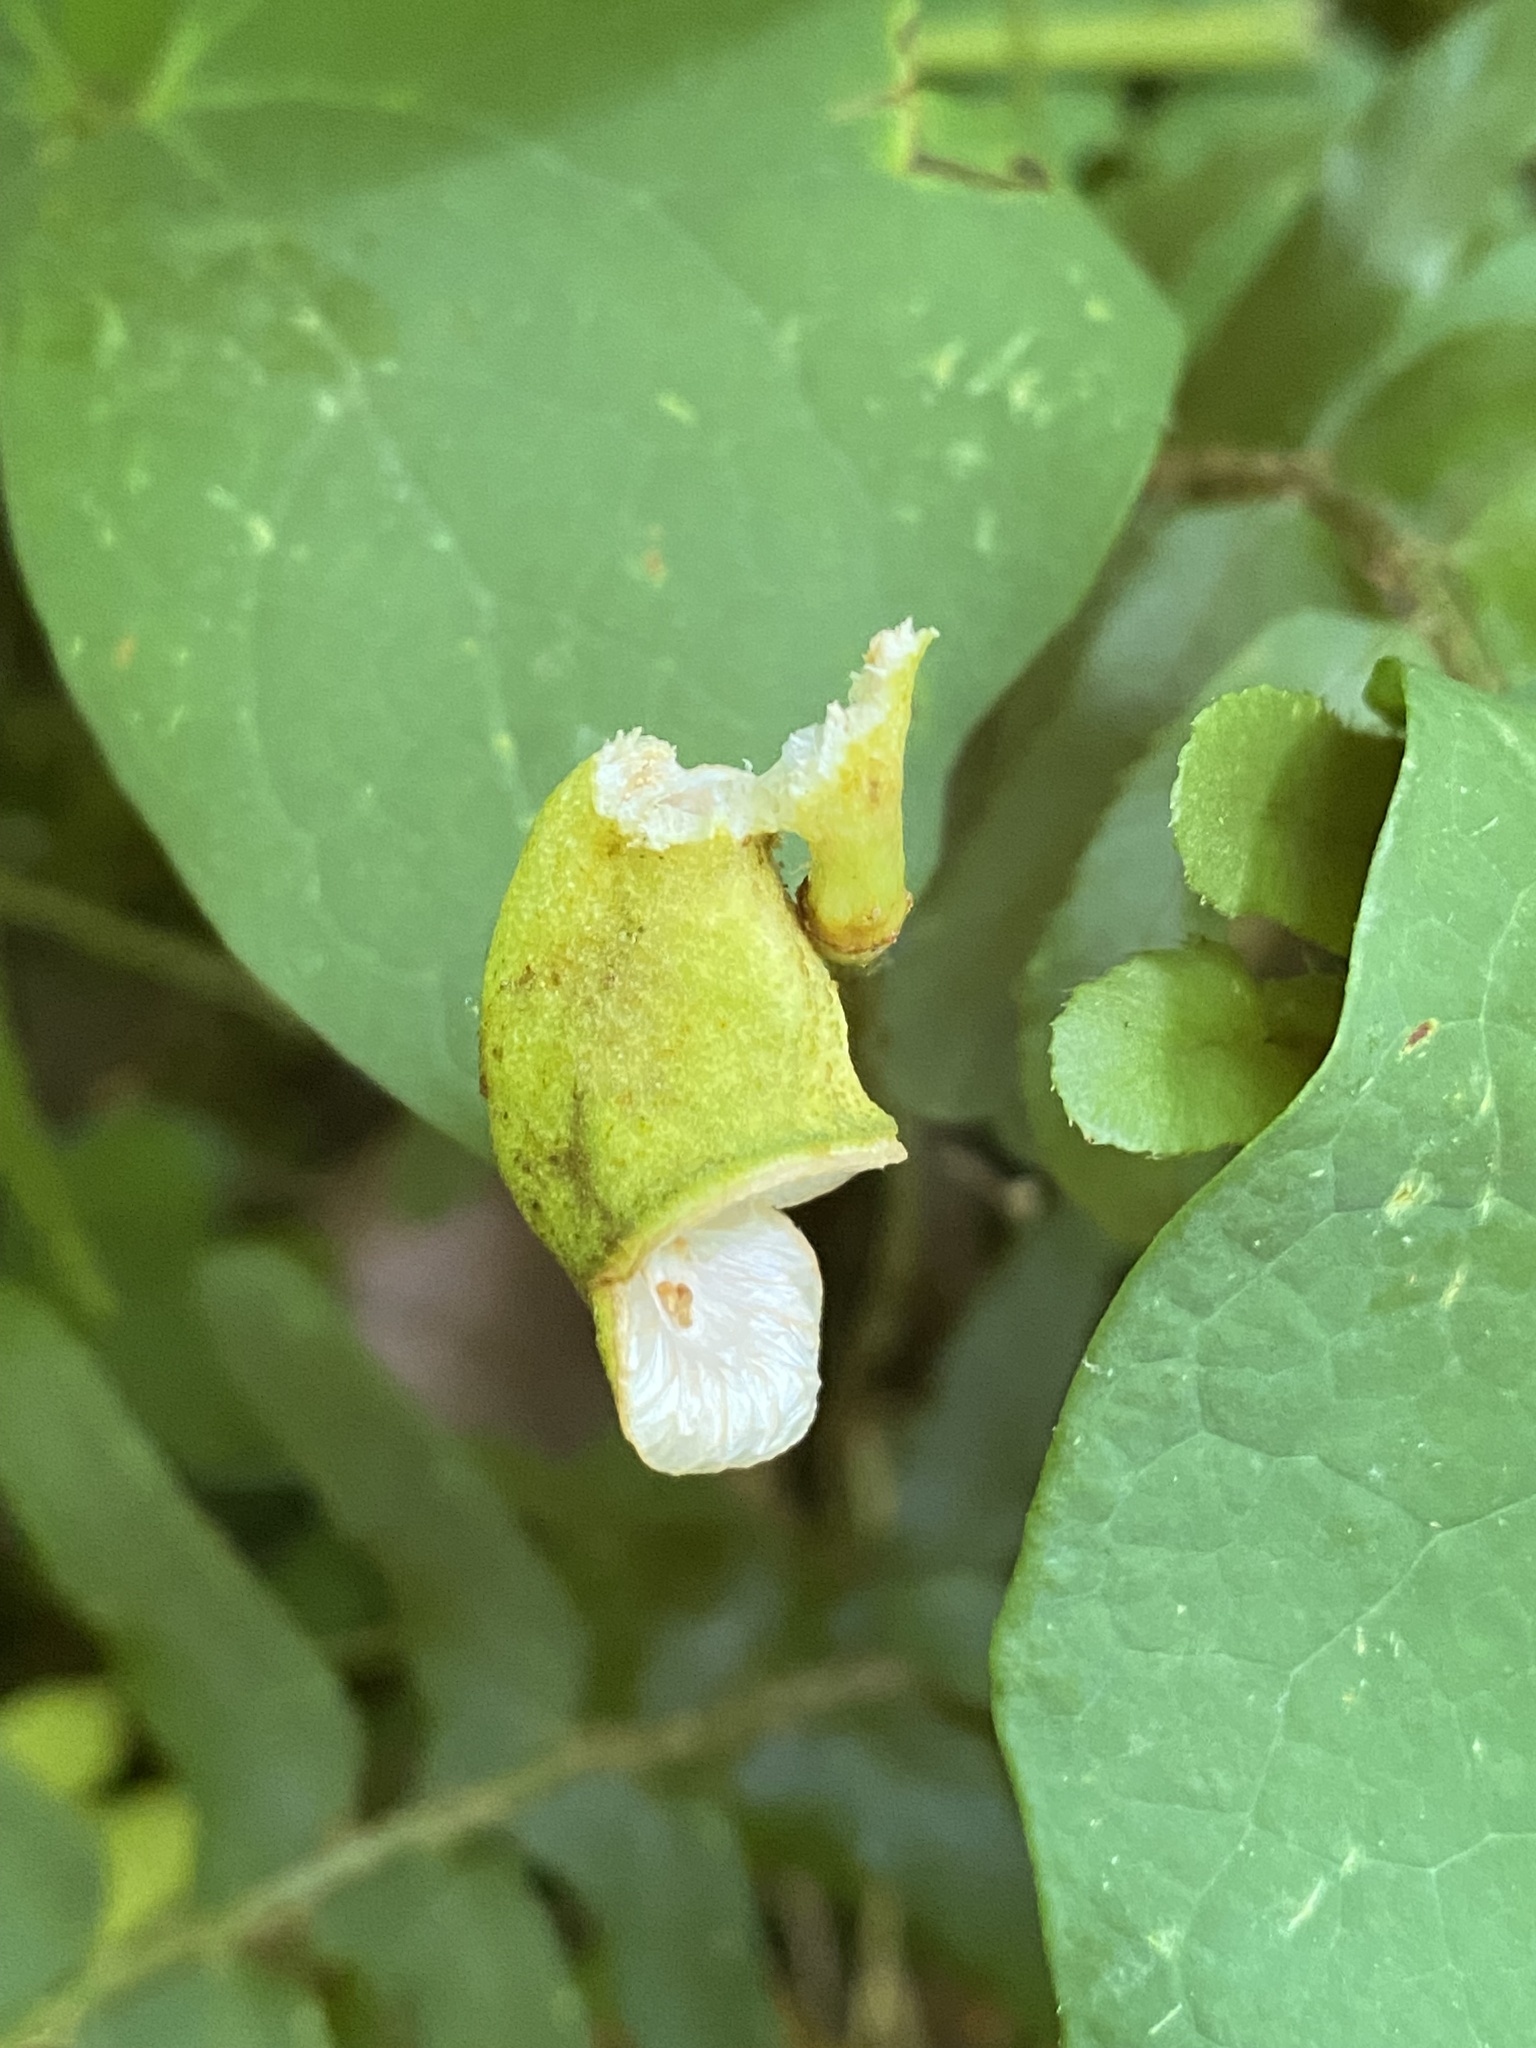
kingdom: Plantae
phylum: Tracheophyta
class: Magnoliopsida
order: Ranunculales
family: Berberidaceae
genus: Jeffersonia
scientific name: Jeffersonia diphylla
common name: Rheumatism-root
